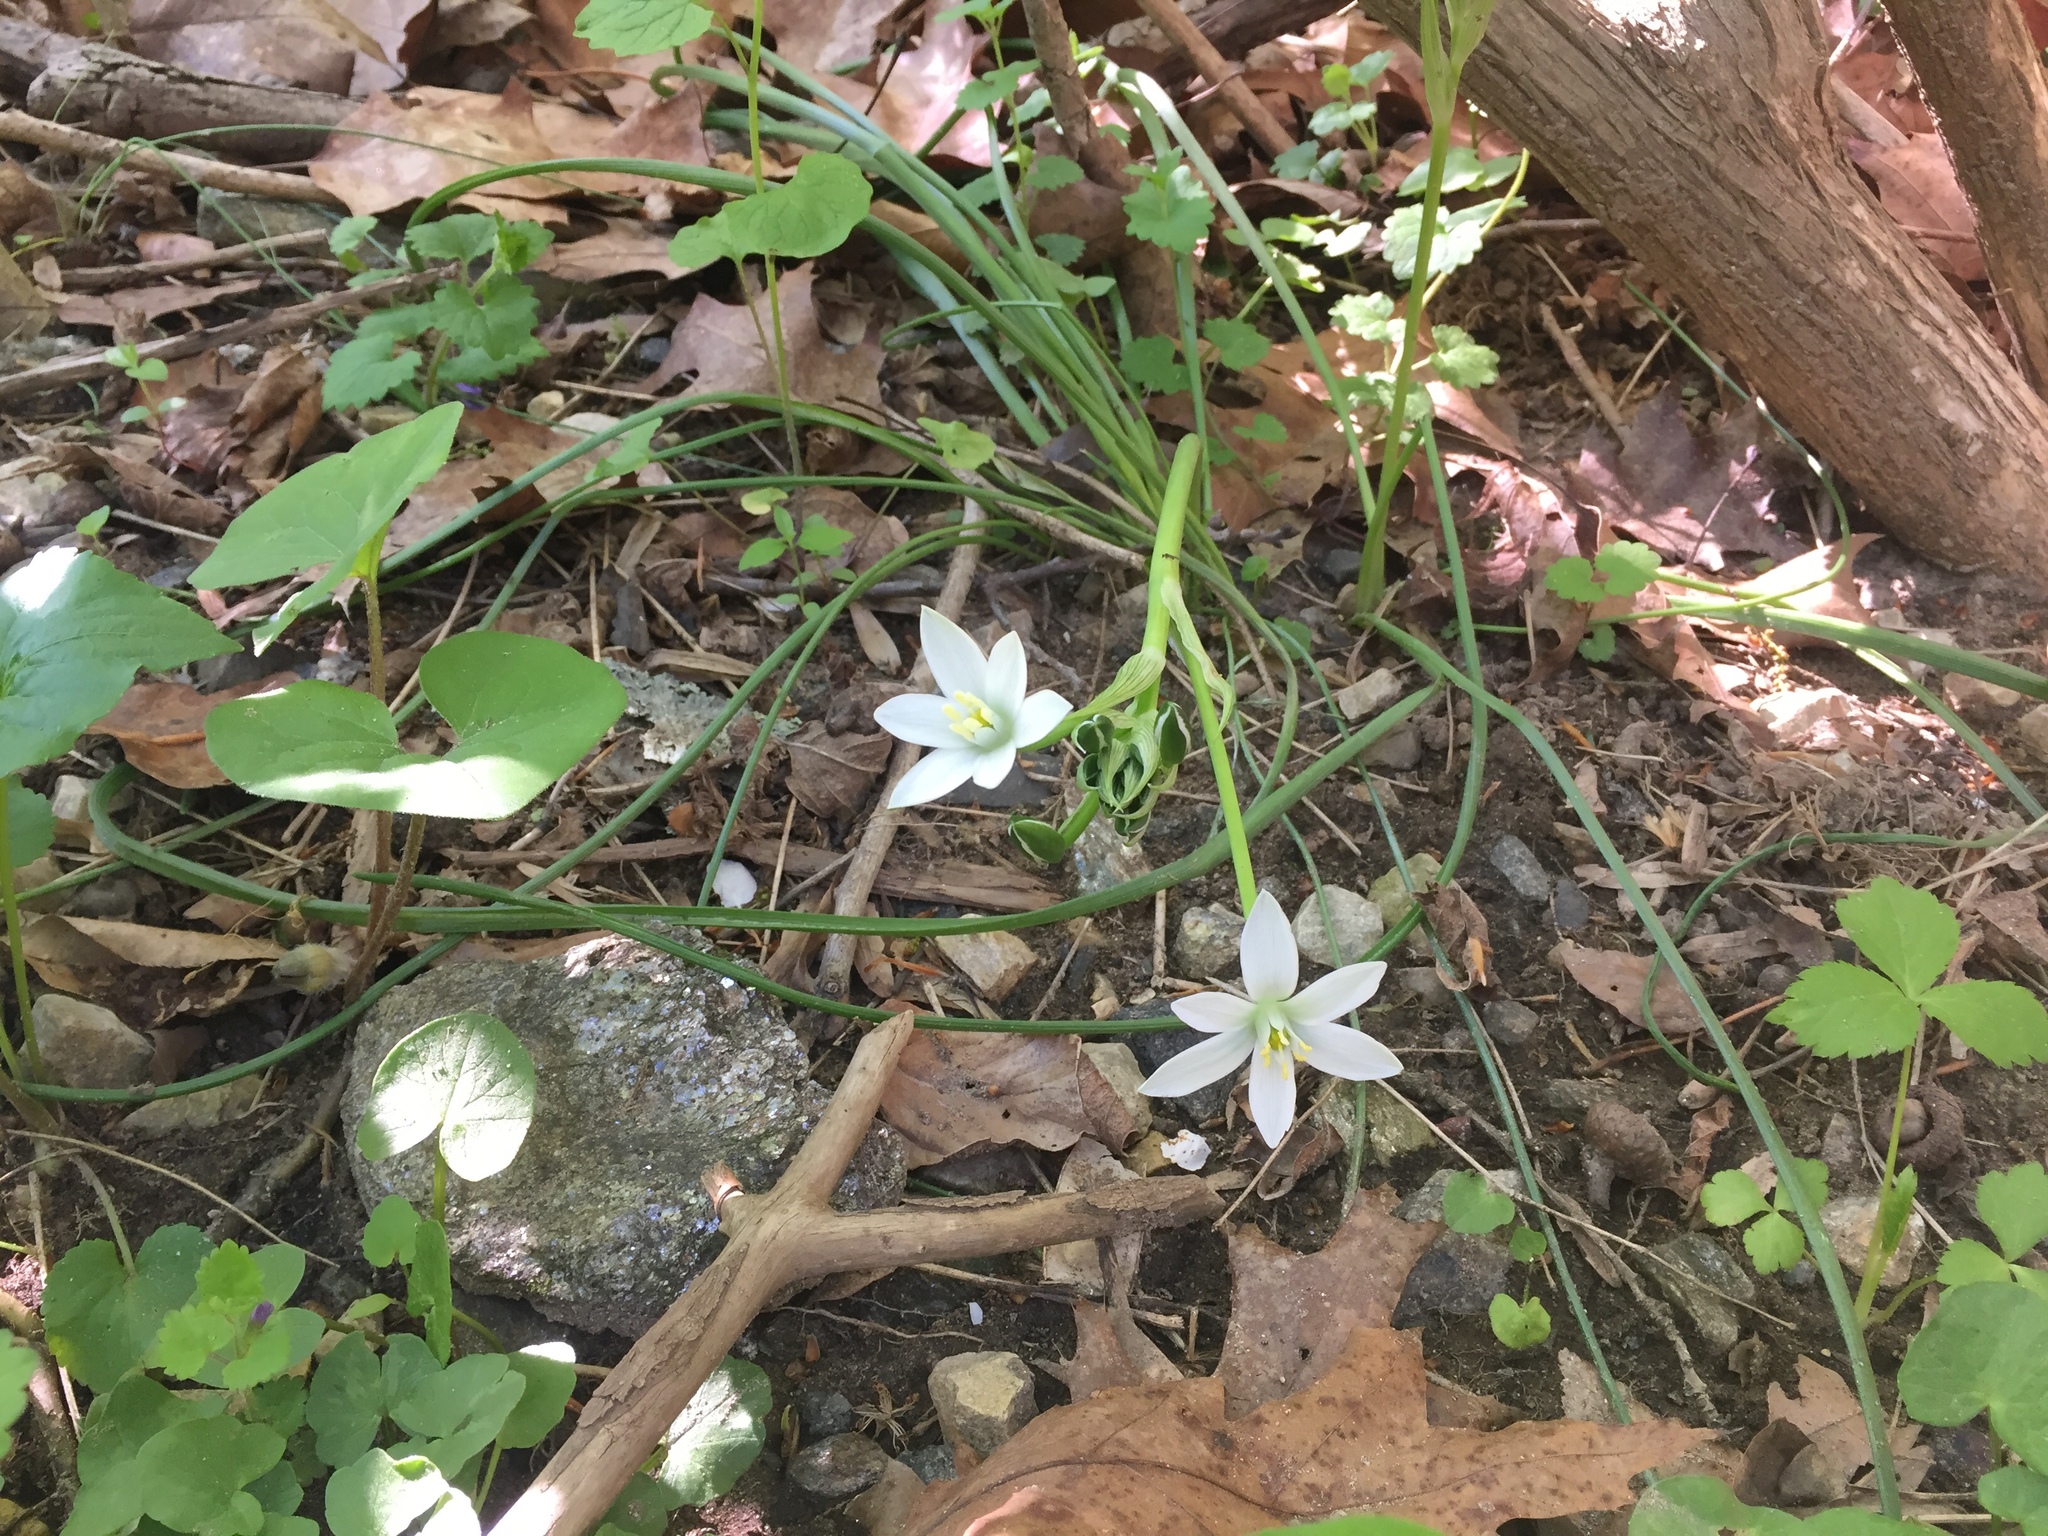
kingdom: Plantae
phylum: Tracheophyta
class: Liliopsida
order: Asparagales
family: Asparagaceae
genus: Ornithogalum
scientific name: Ornithogalum umbellatum
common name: Garden star-of-bethlehem
